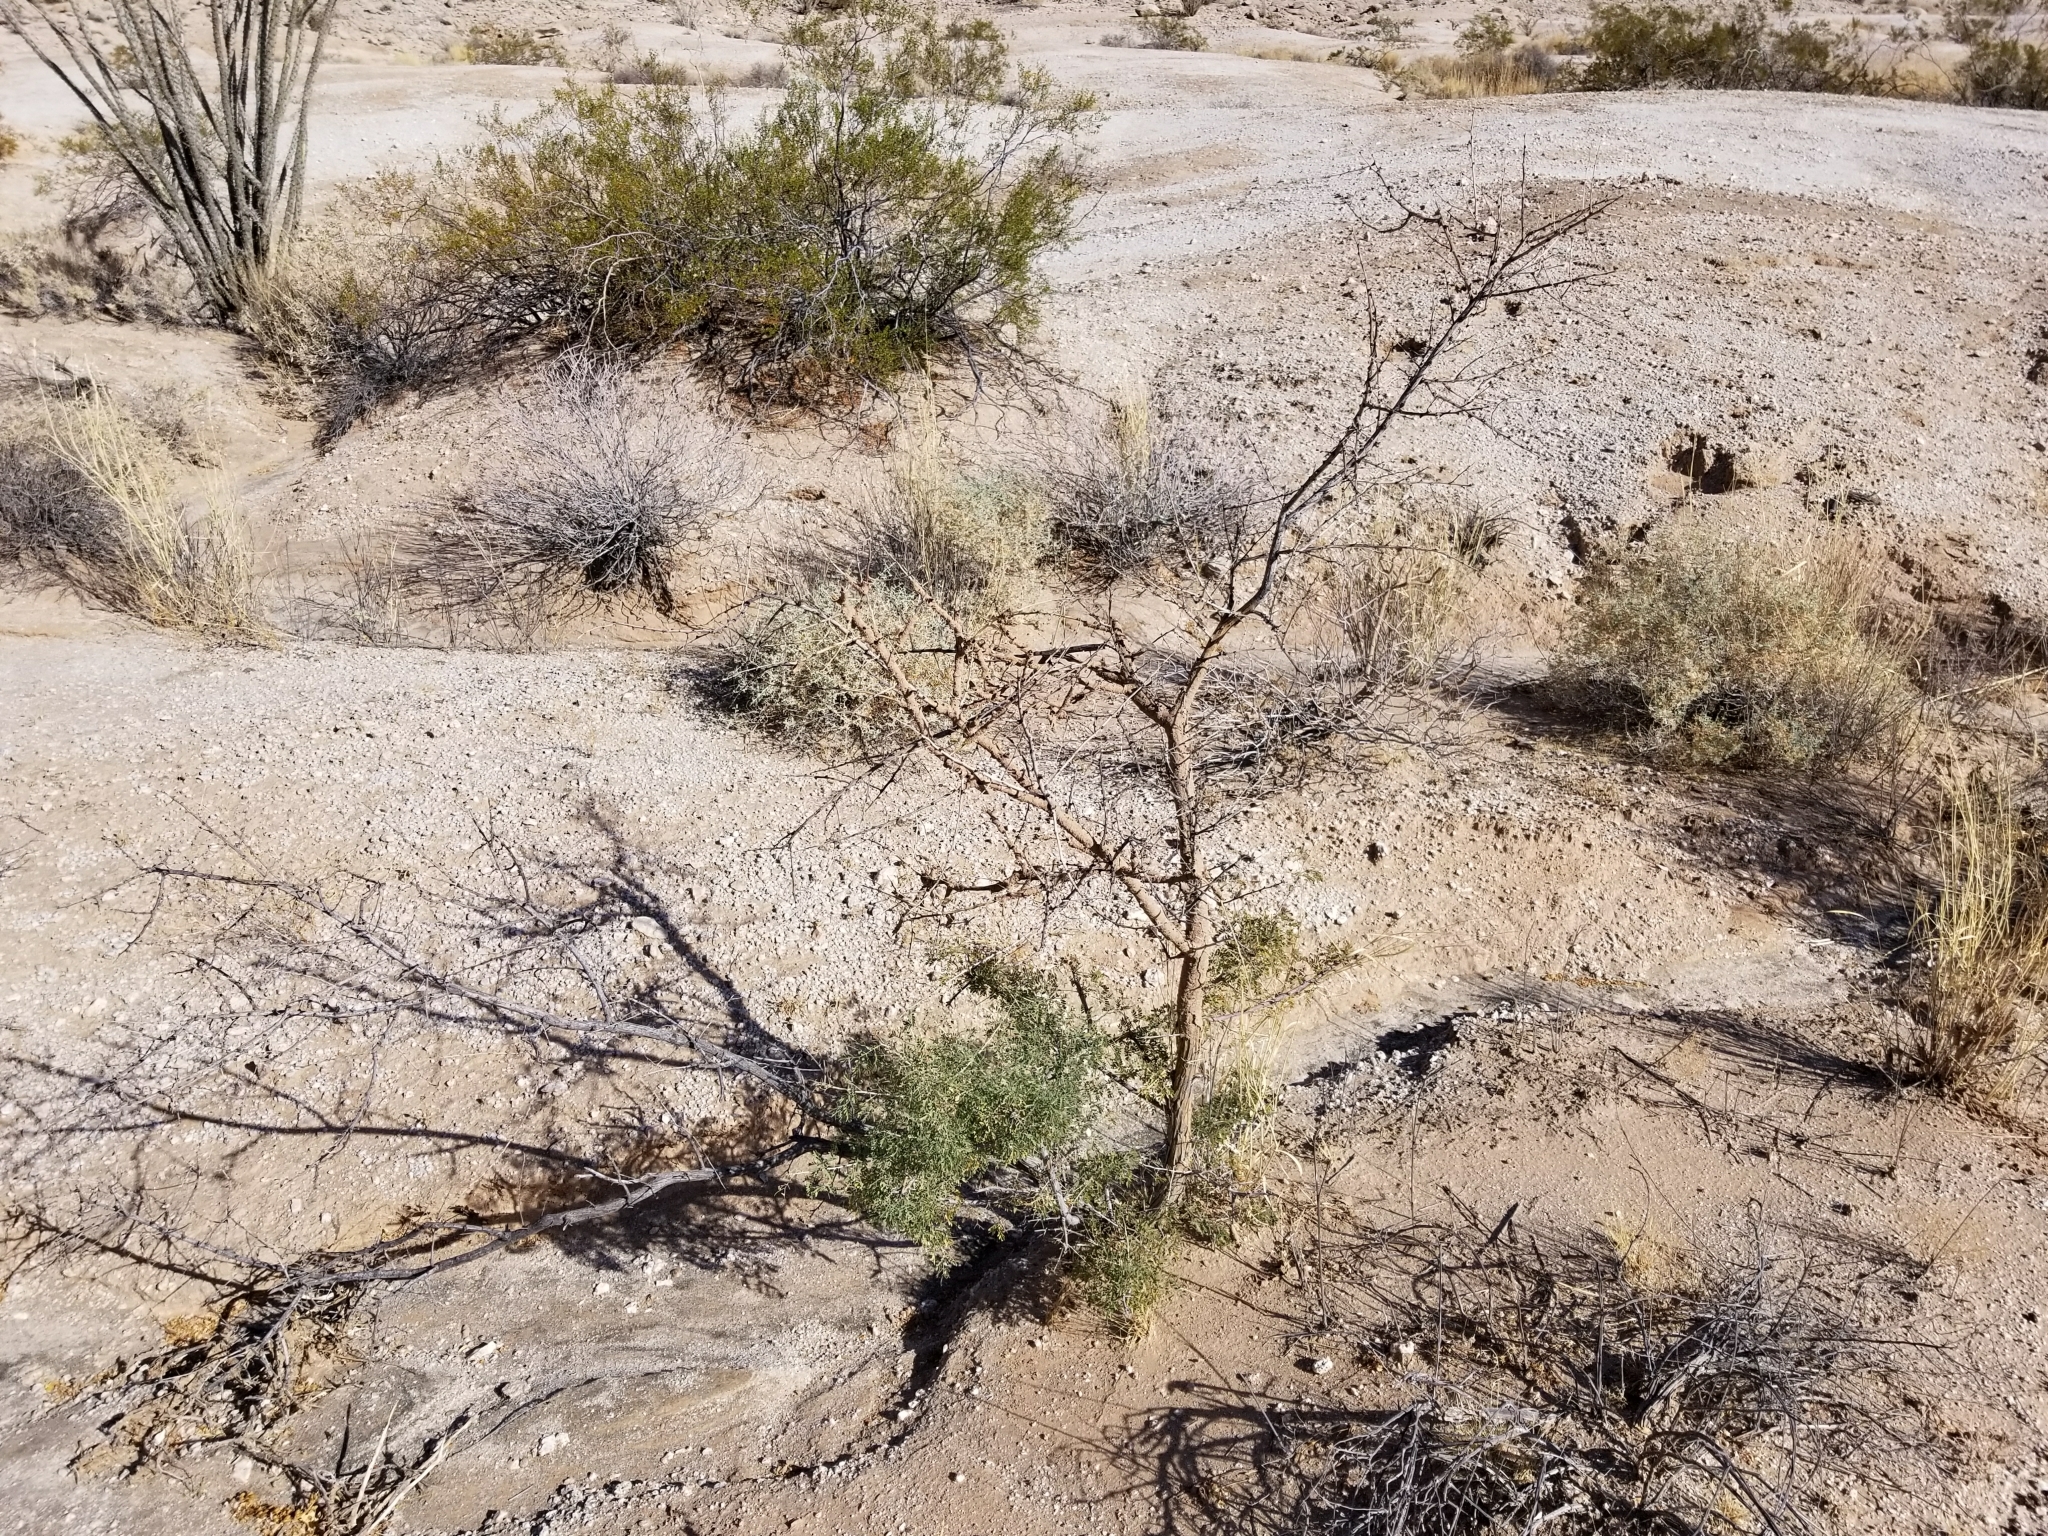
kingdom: Plantae
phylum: Tracheophyta
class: Magnoliopsida
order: Fabales
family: Fabaceae
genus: Senegalia
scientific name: Senegalia greggii
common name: Texas-mimosa
